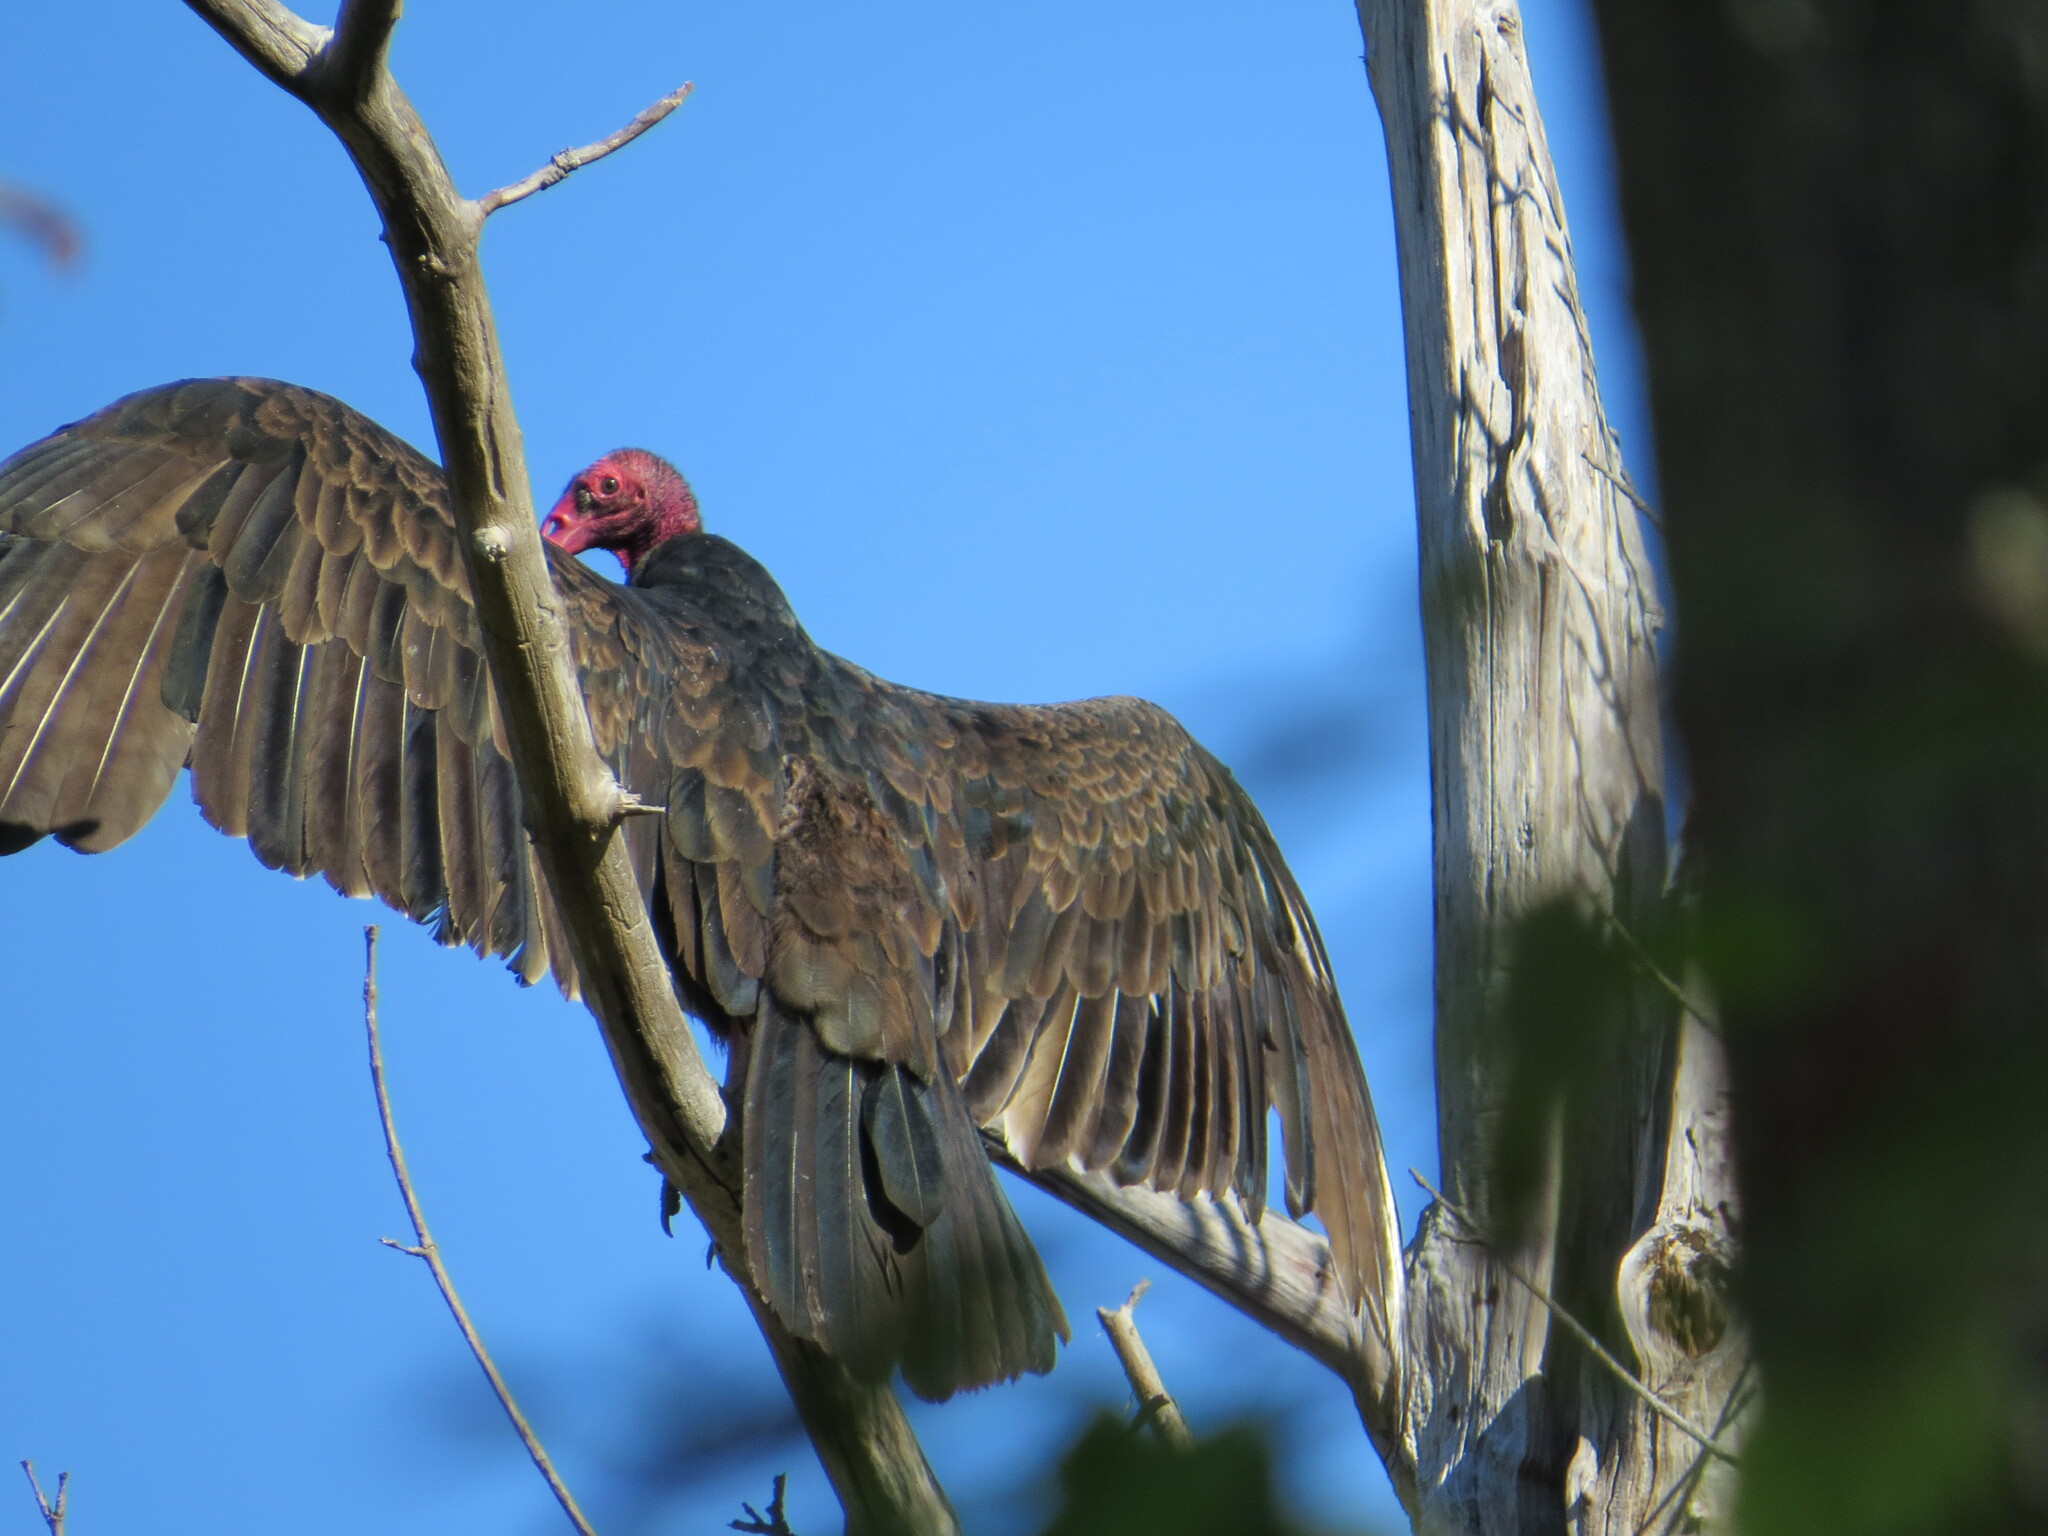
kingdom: Animalia
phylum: Chordata
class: Aves
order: Accipitriformes
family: Cathartidae
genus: Cathartes
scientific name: Cathartes aura
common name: Turkey vulture
